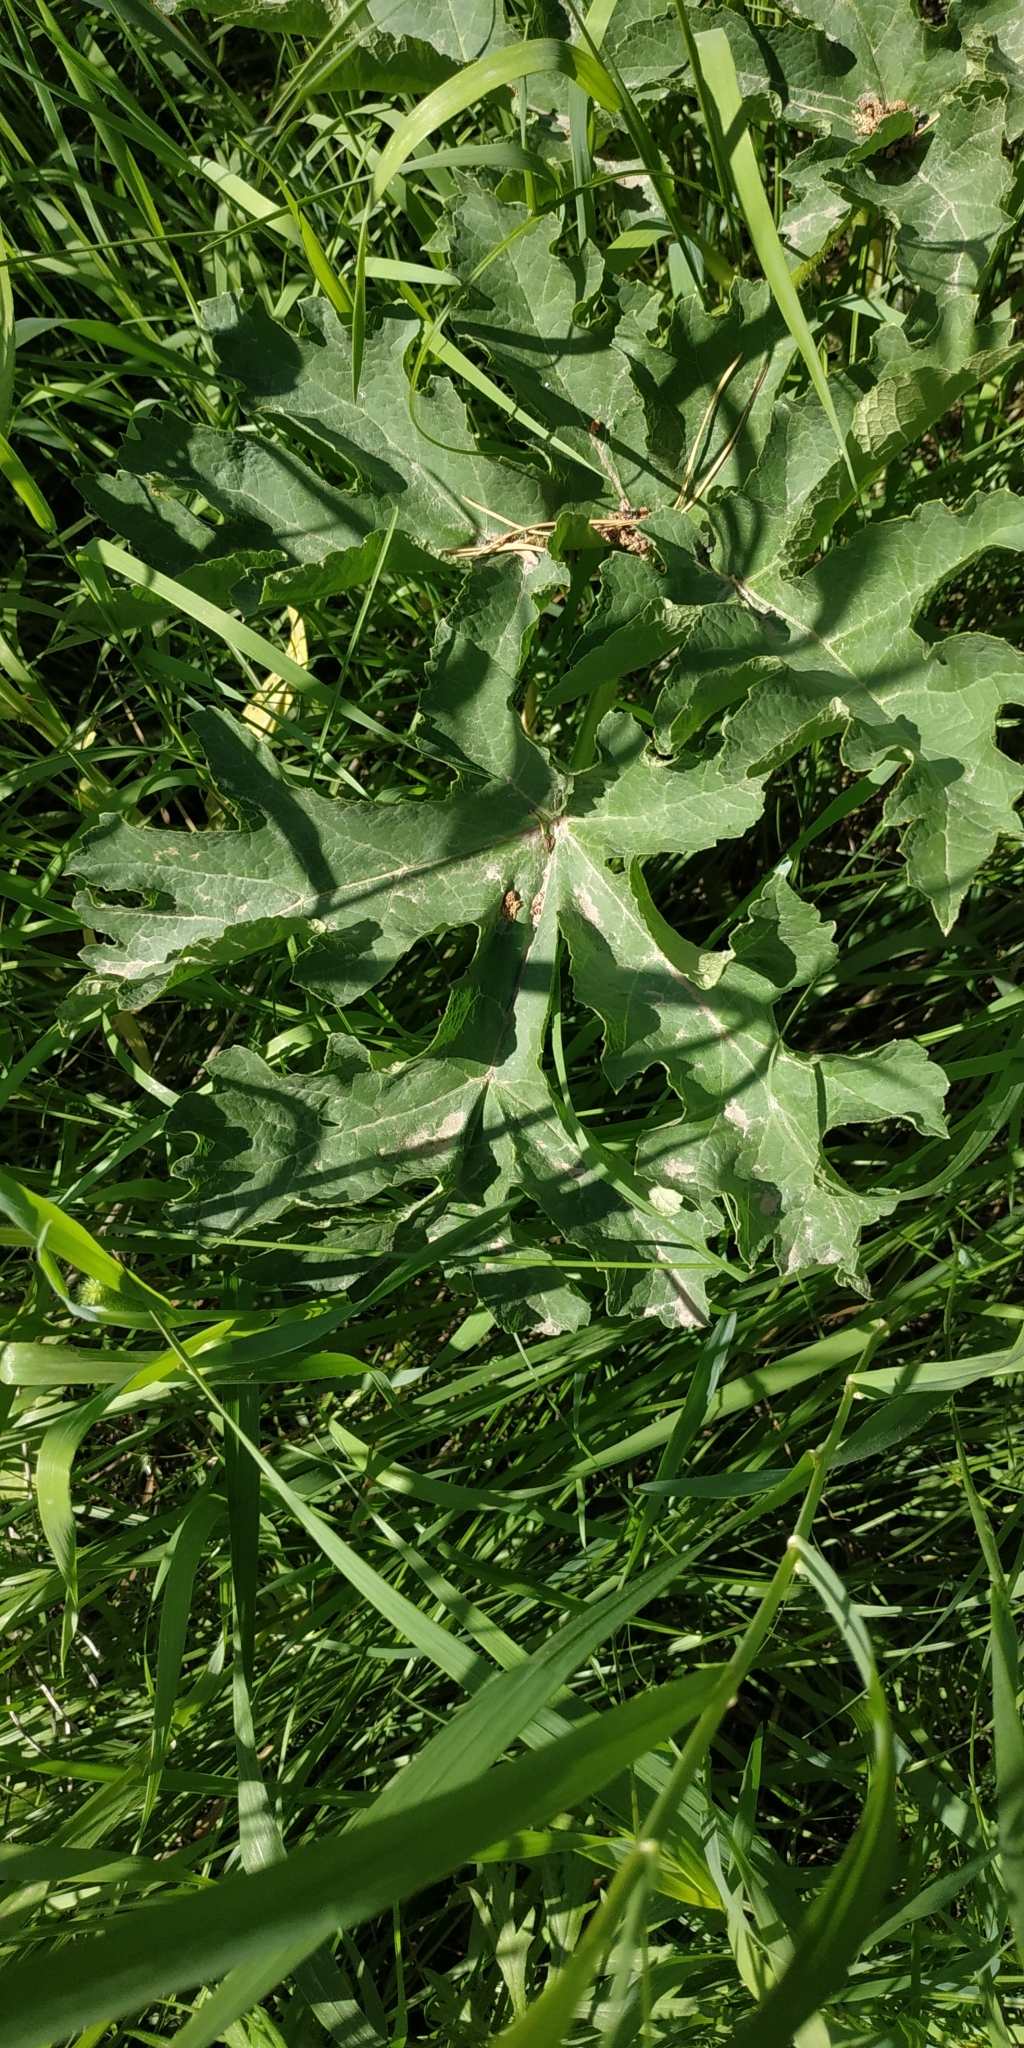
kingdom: Plantae
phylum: Tracheophyta
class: Magnoliopsida
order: Apiales
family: Apiaceae
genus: Heracleum
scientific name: Heracleum sphondylium
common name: Hogweed
